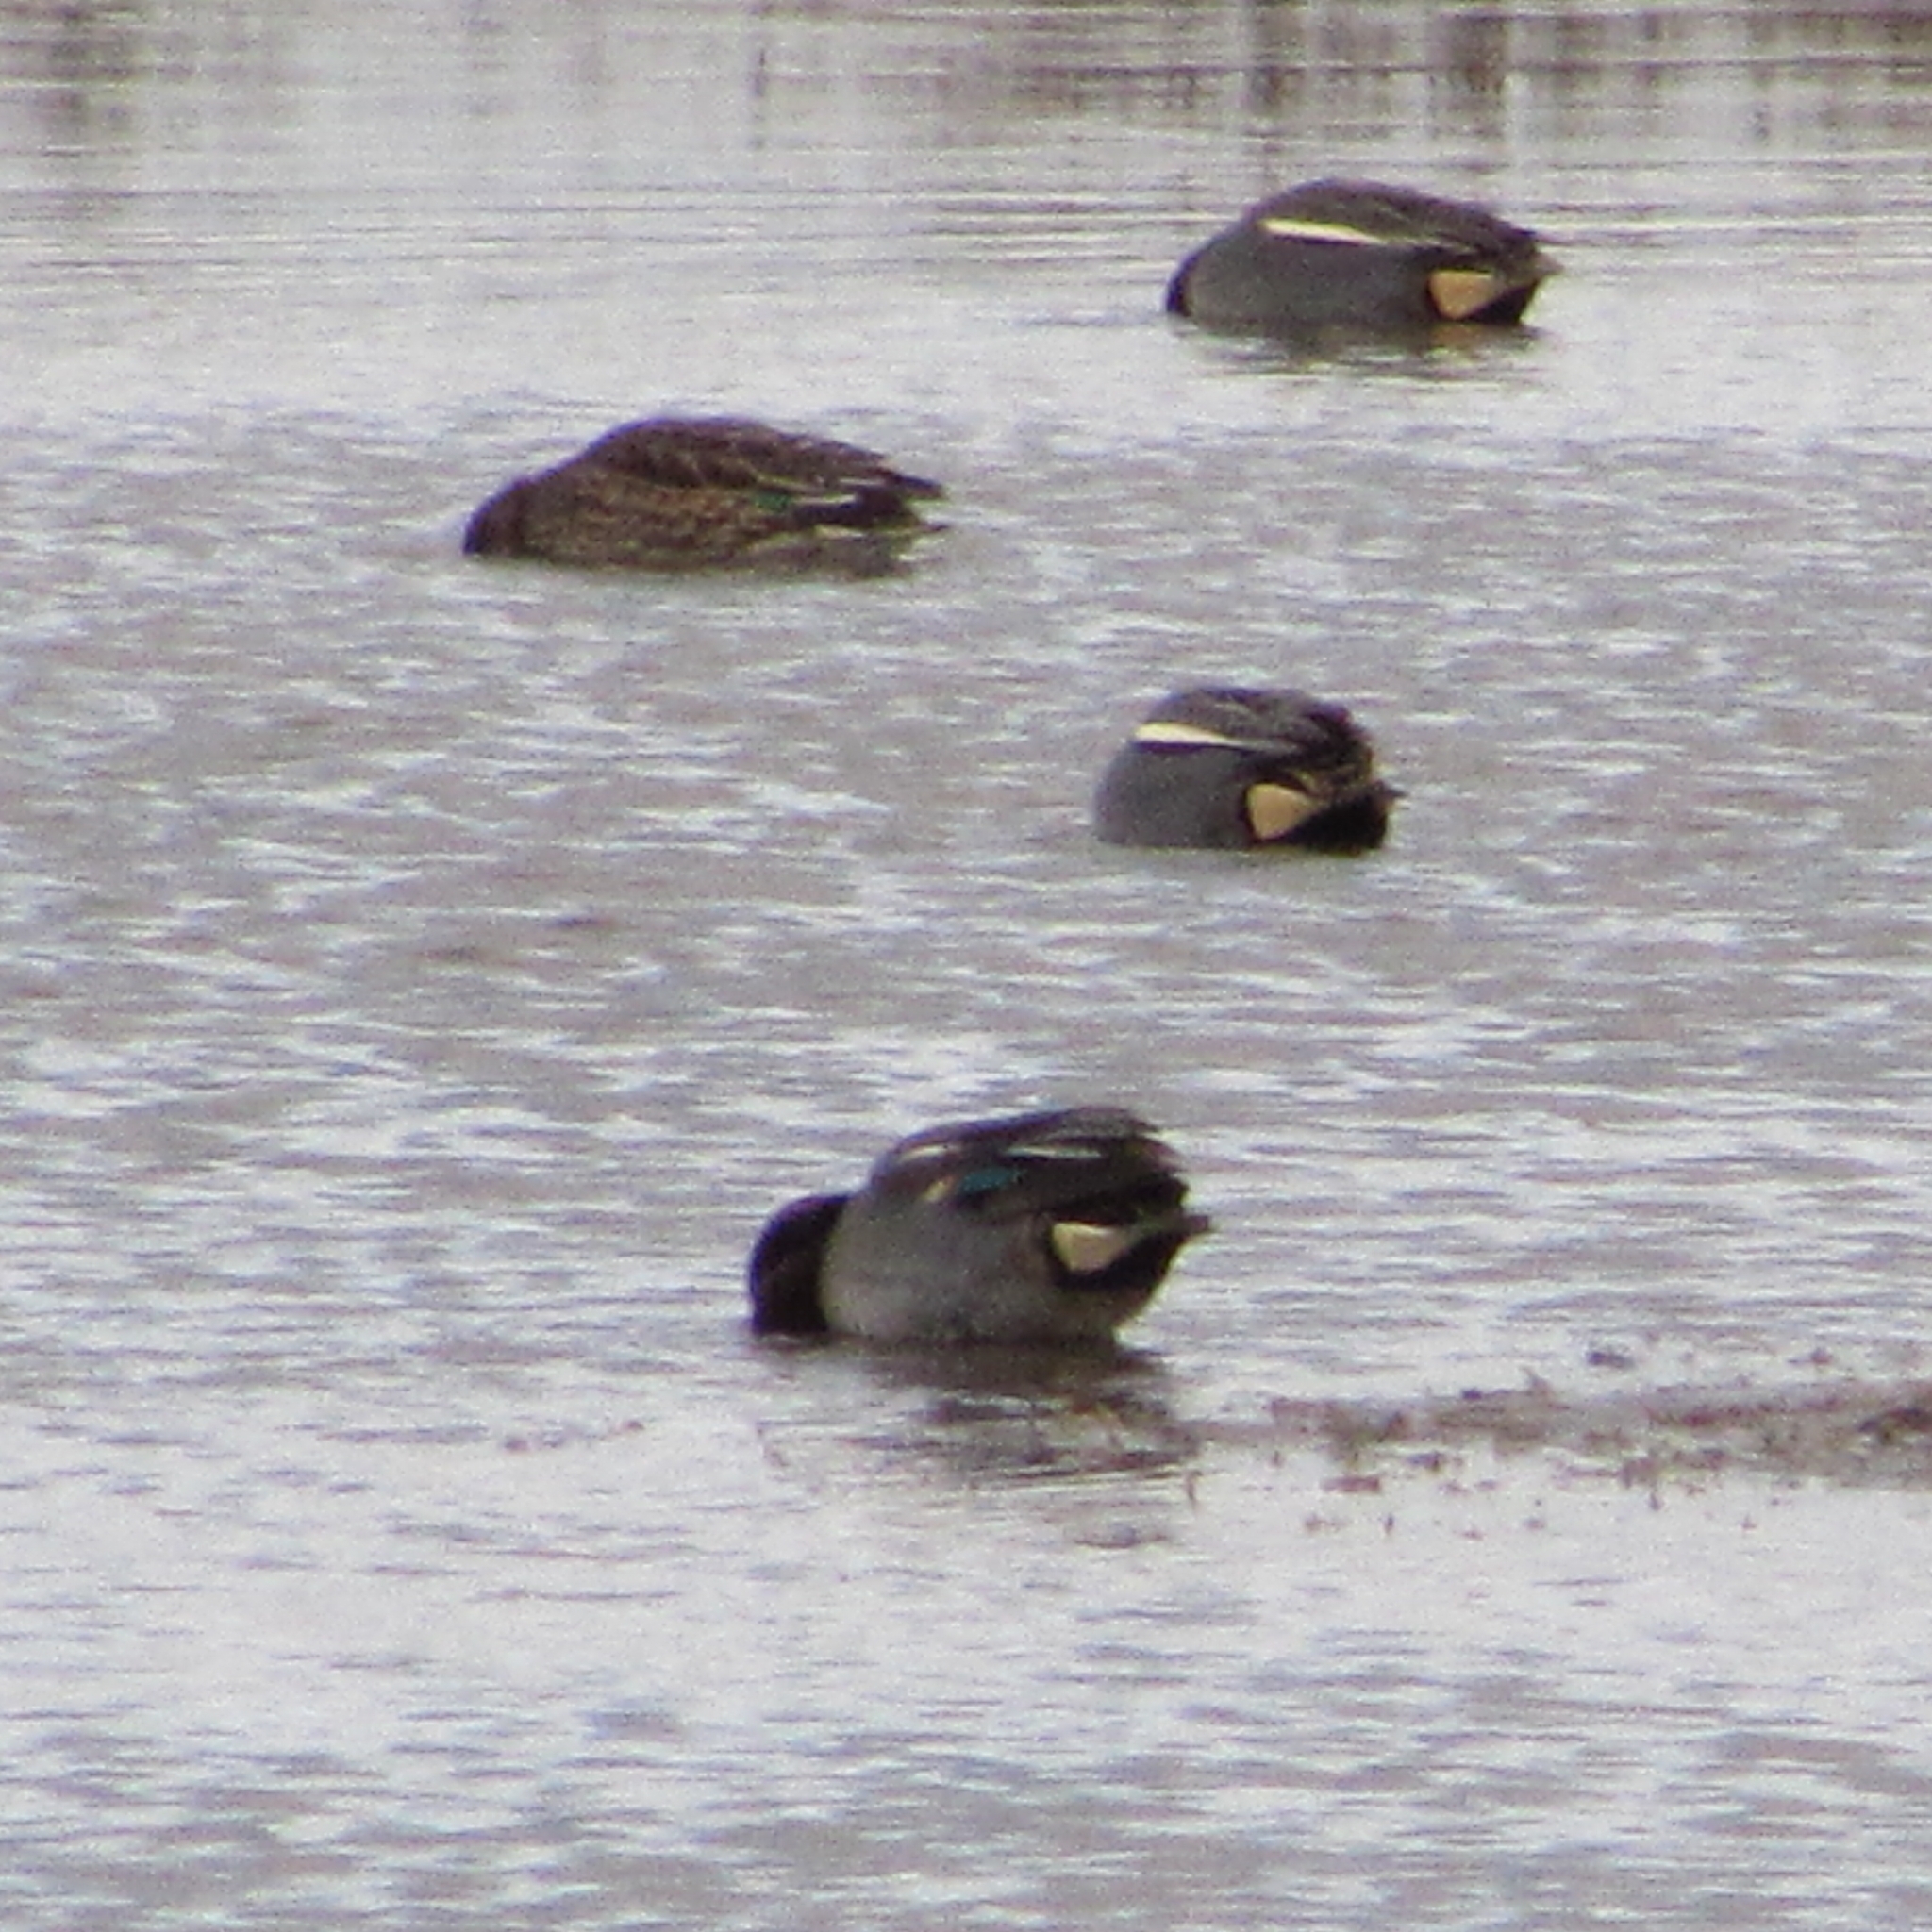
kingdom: Animalia
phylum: Chordata
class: Aves
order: Anseriformes
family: Anatidae
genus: Anas
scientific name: Anas crecca
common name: Eurasian teal
